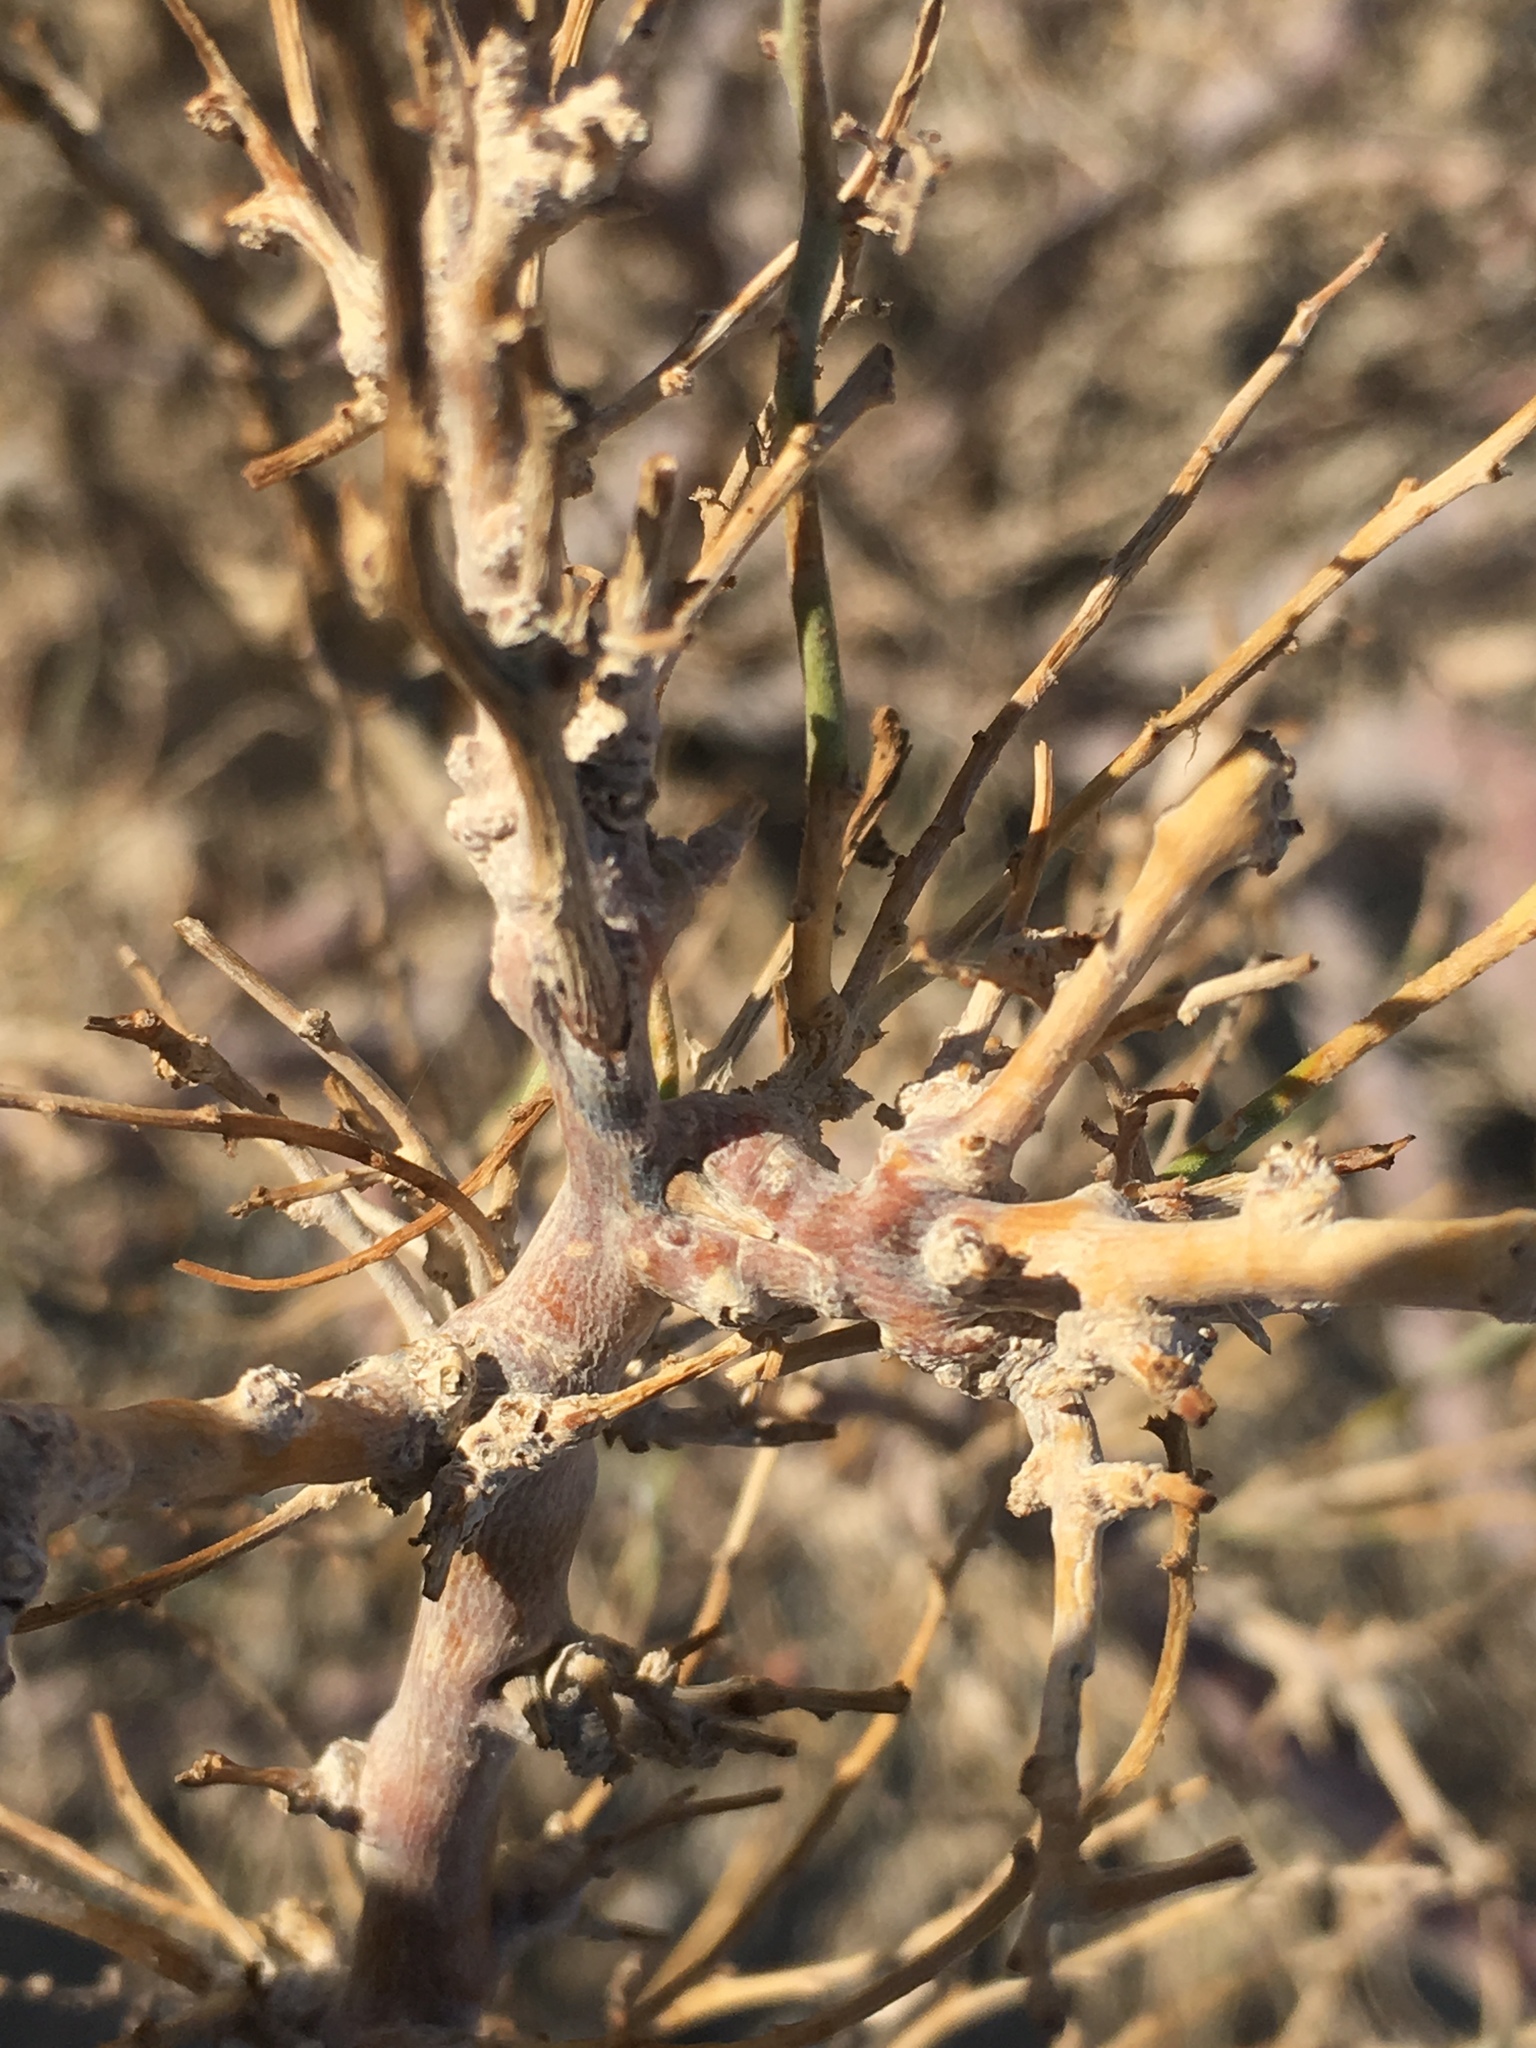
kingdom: Plantae
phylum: Tracheophyta
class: Magnoliopsida
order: Fabales
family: Fabaceae
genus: Psorothamnus
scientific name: Psorothamnus schottii
